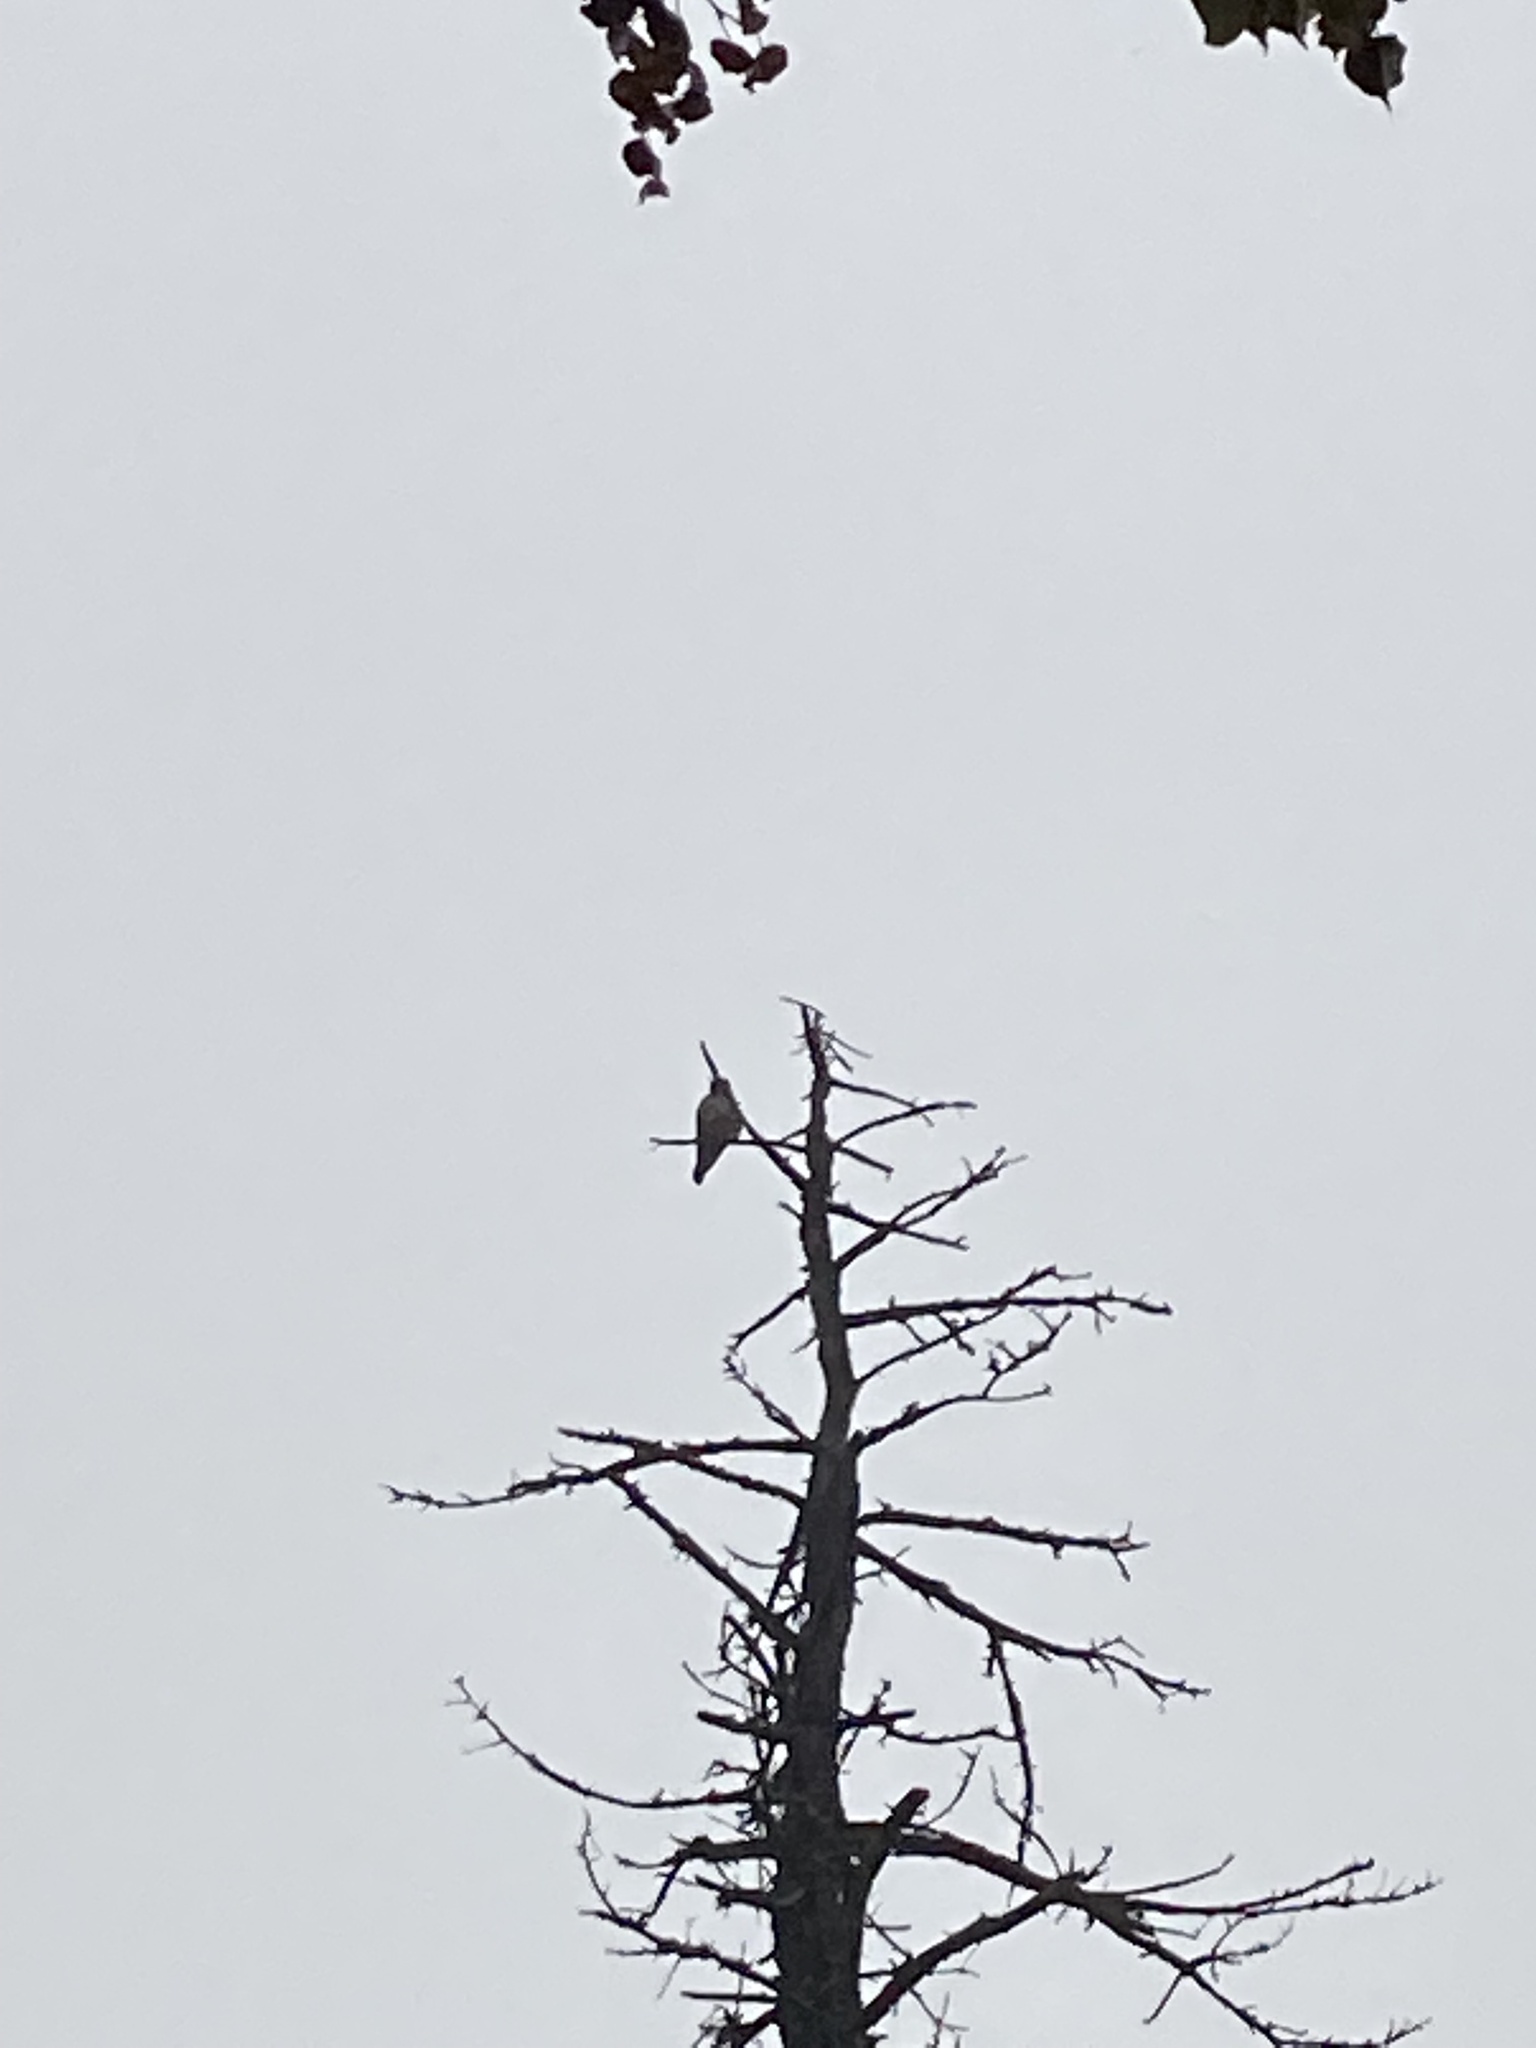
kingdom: Animalia
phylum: Chordata
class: Aves
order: Falconiformes
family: Falconidae
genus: Falco
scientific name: Falco columbarius
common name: Merlin
